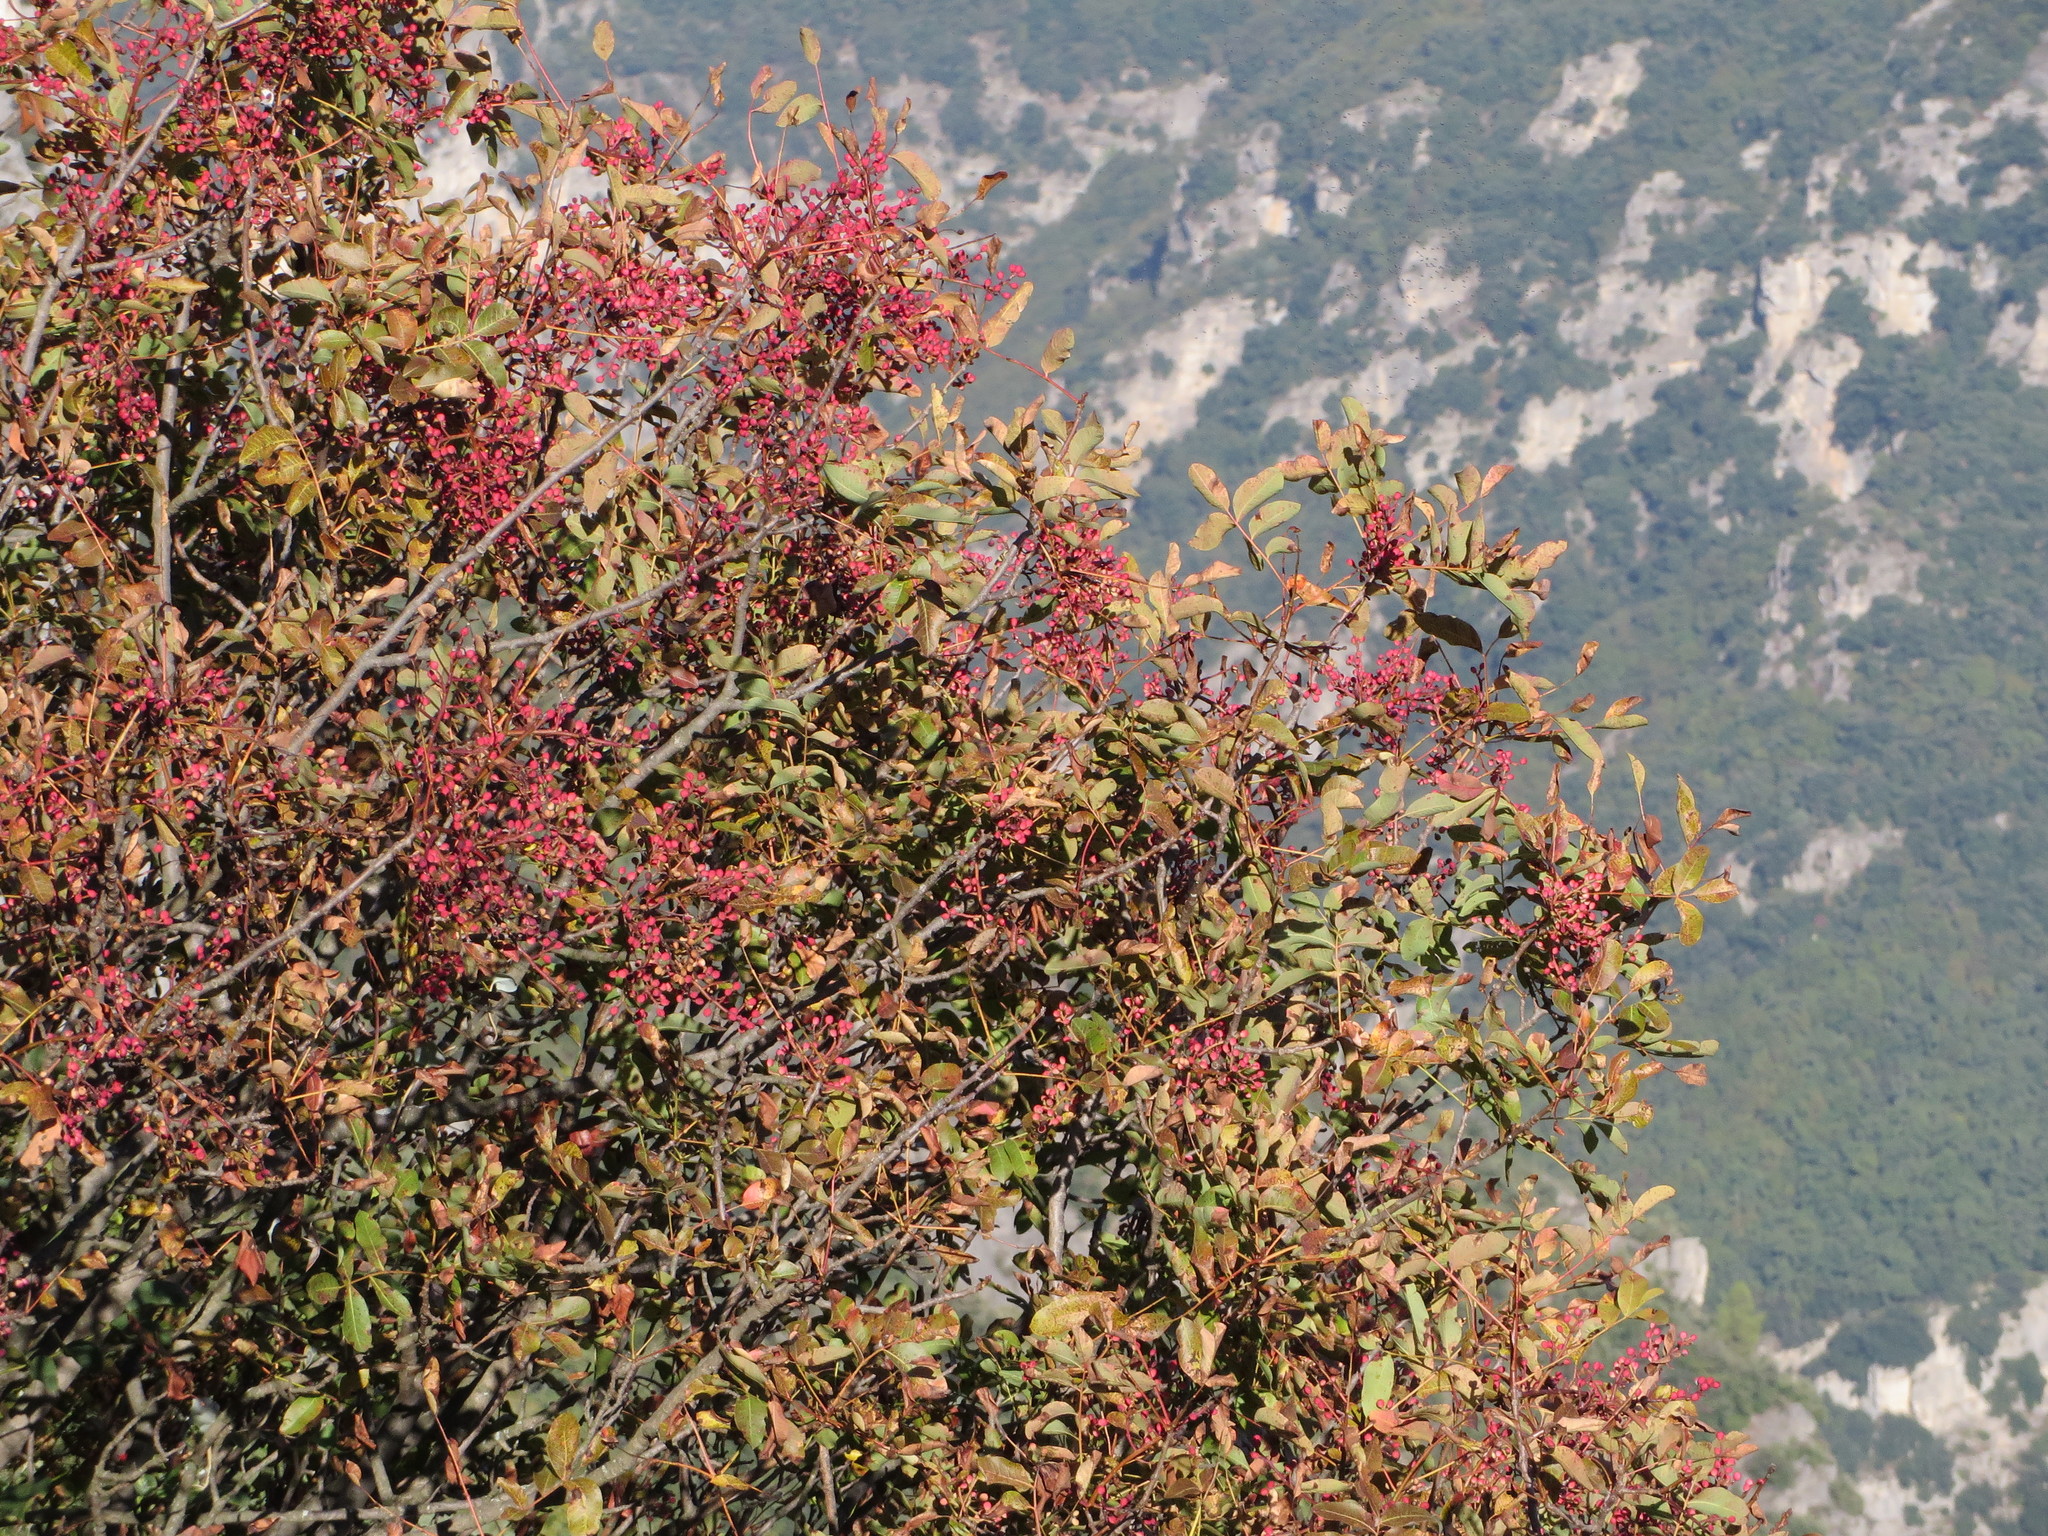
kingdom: Plantae
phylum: Tracheophyta
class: Magnoliopsida
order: Sapindales
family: Anacardiaceae
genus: Pistacia
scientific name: Pistacia terebinthus
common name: Terebinth
